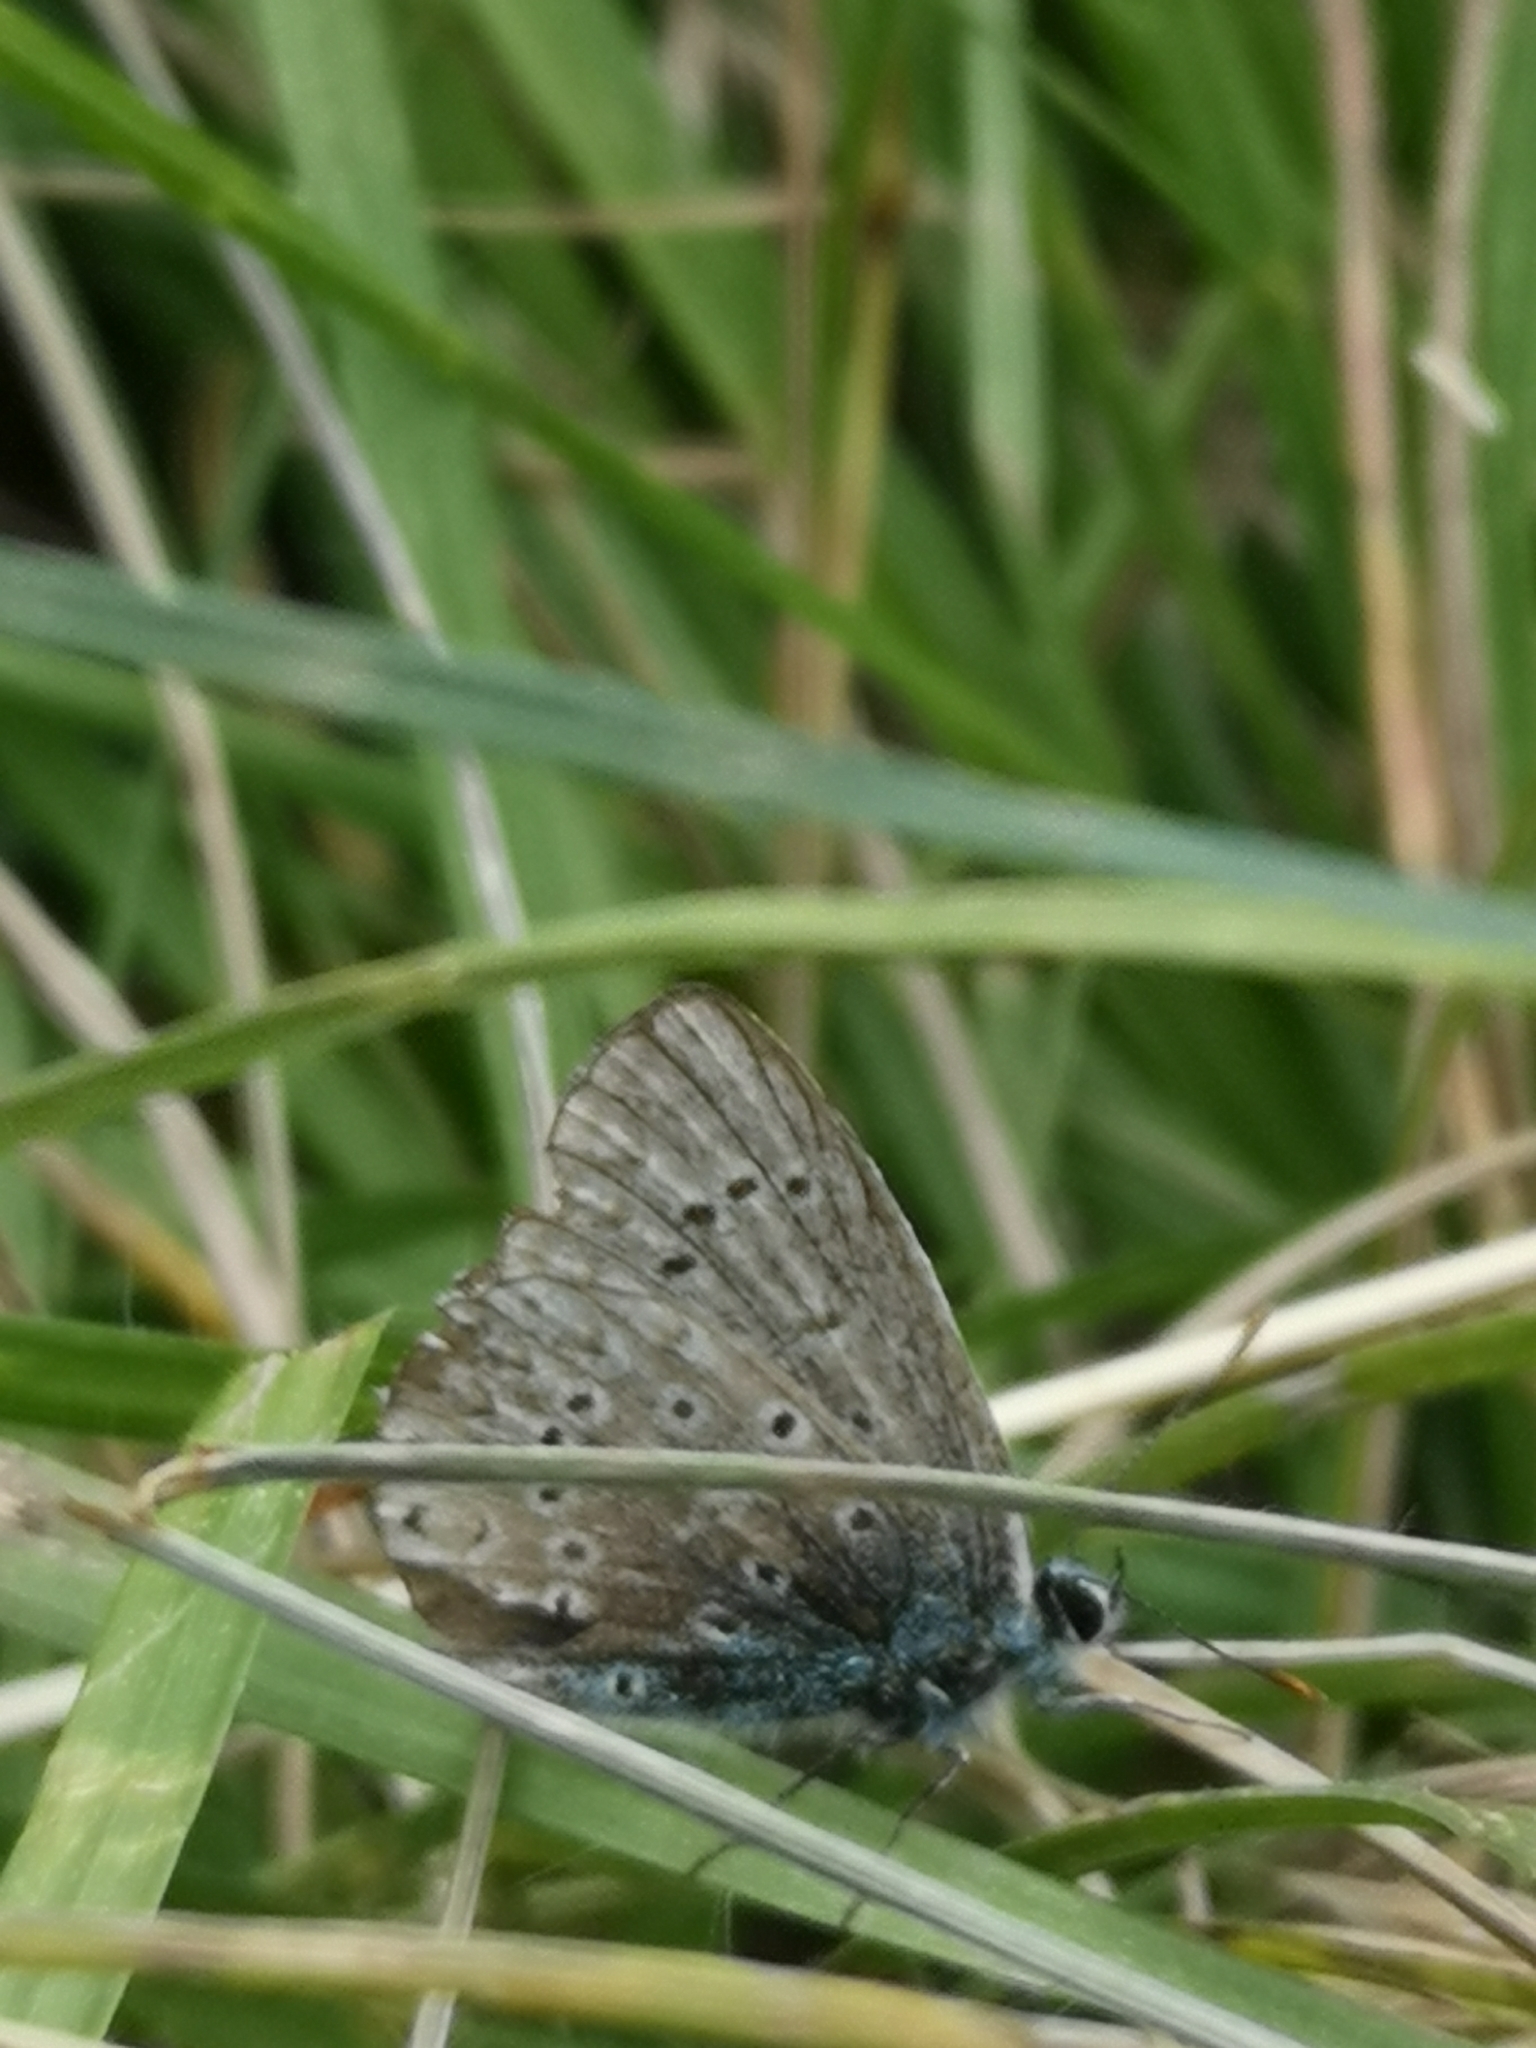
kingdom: Animalia
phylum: Arthropoda
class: Insecta
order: Lepidoptera
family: Lycaenidae
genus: Polyommatus
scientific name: Polyommatus icarus
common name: Common blue
